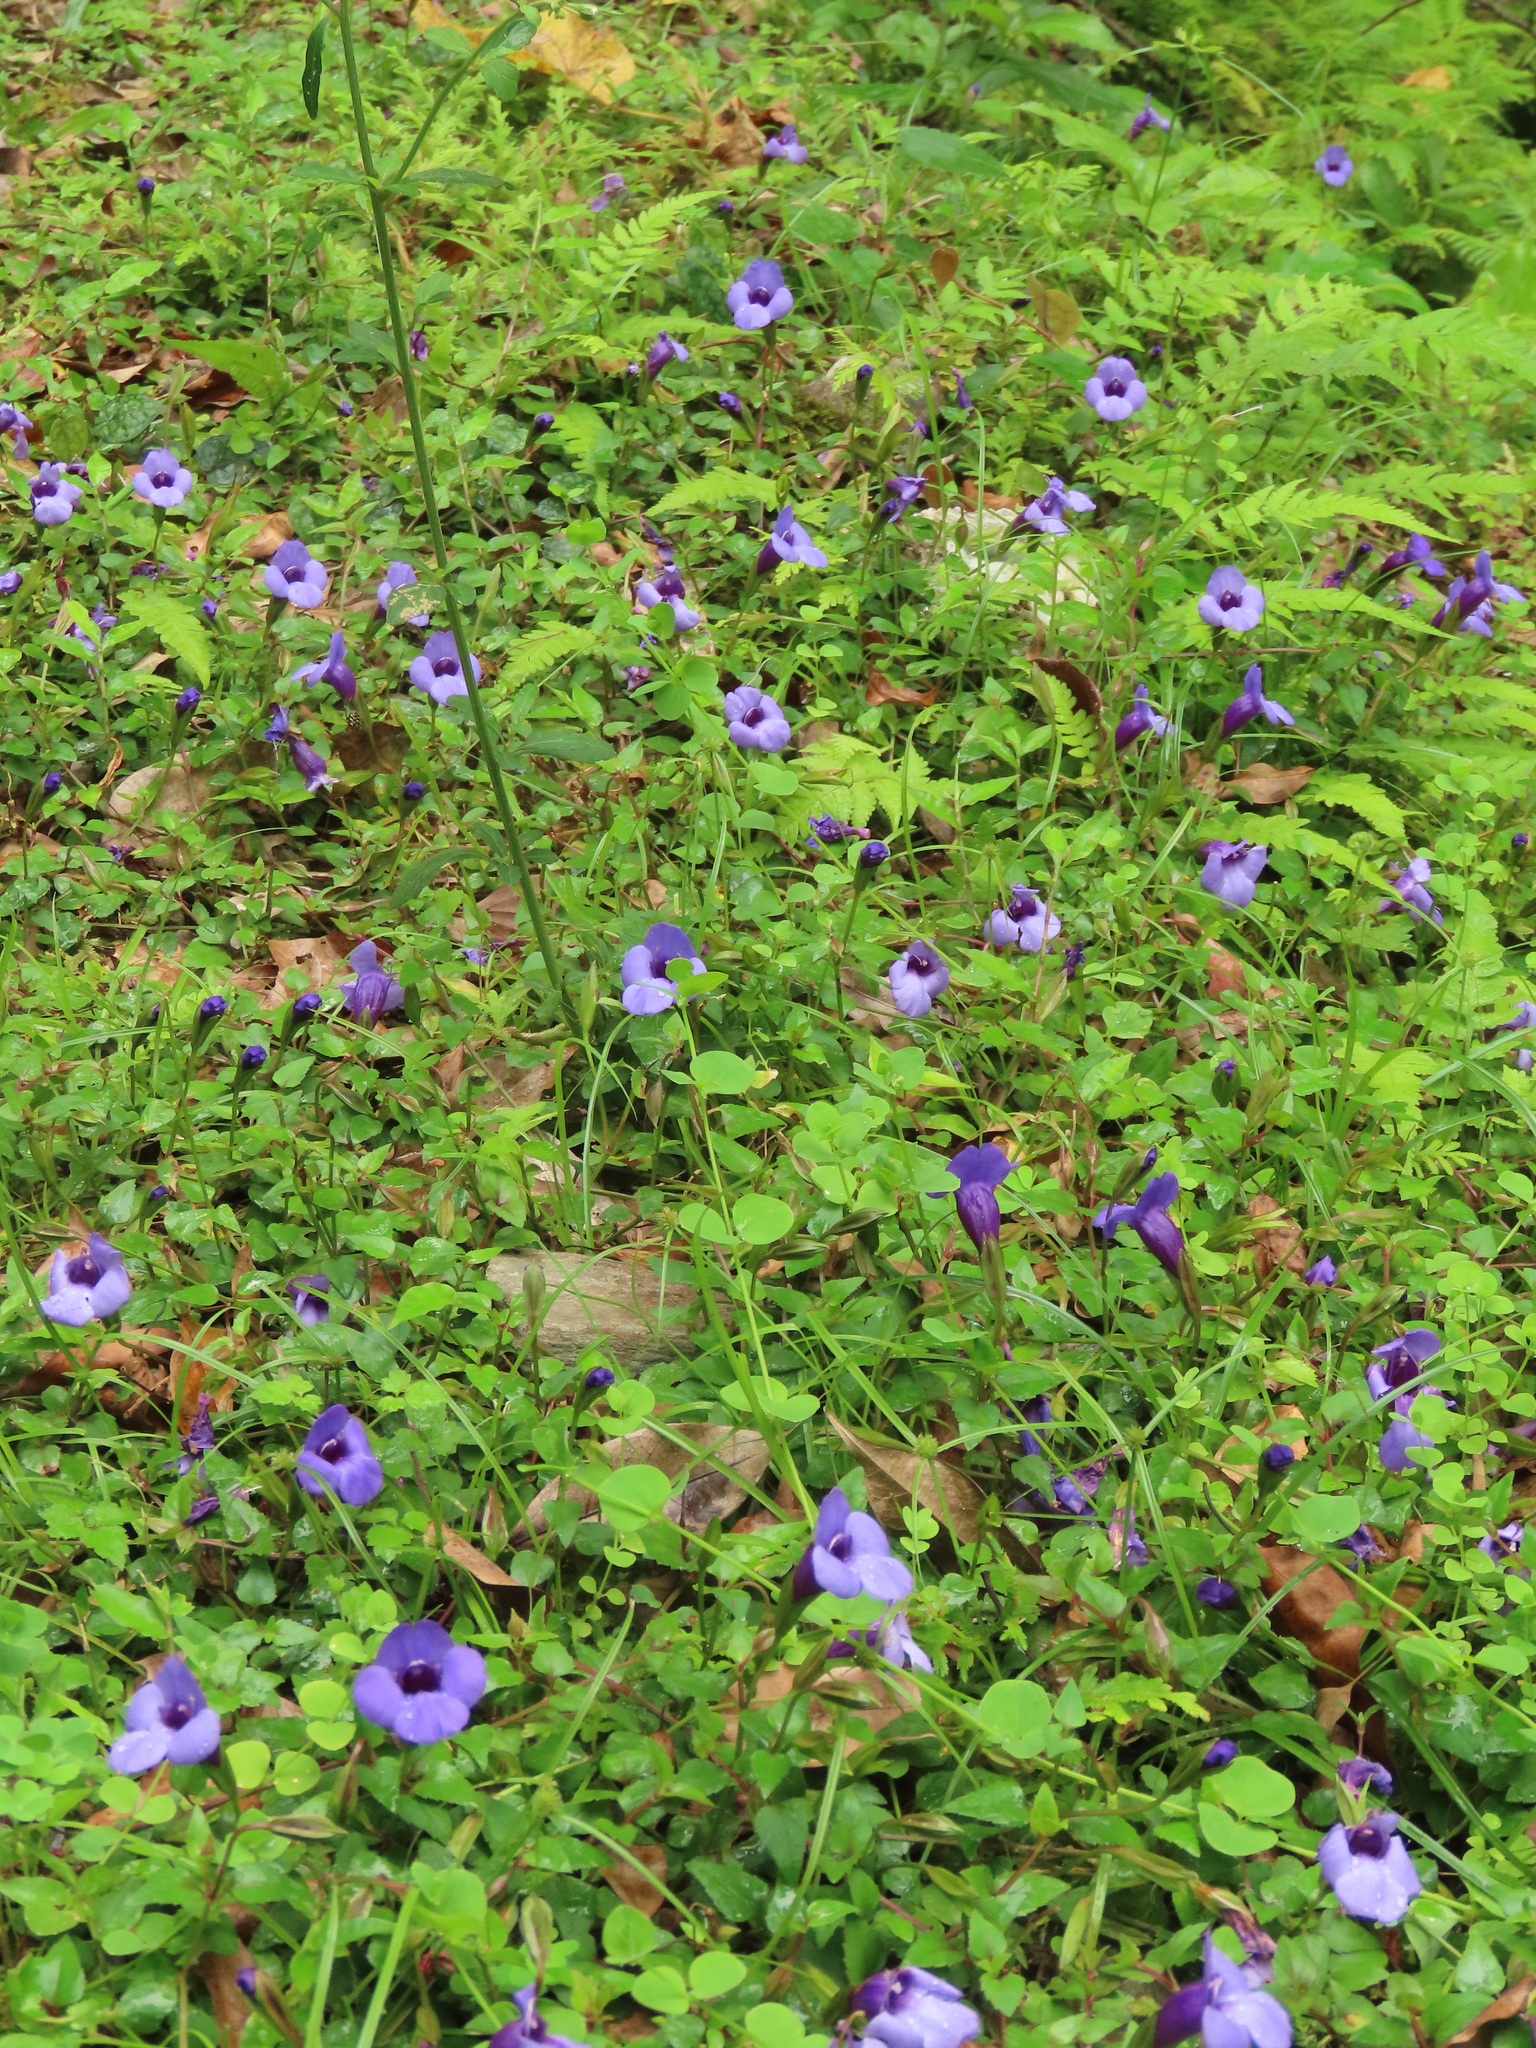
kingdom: Plantae
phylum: Tracheophyta
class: Magnoliopsida
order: Lamiales
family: Linderniaceae
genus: Torenia
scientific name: Torenia concolor
